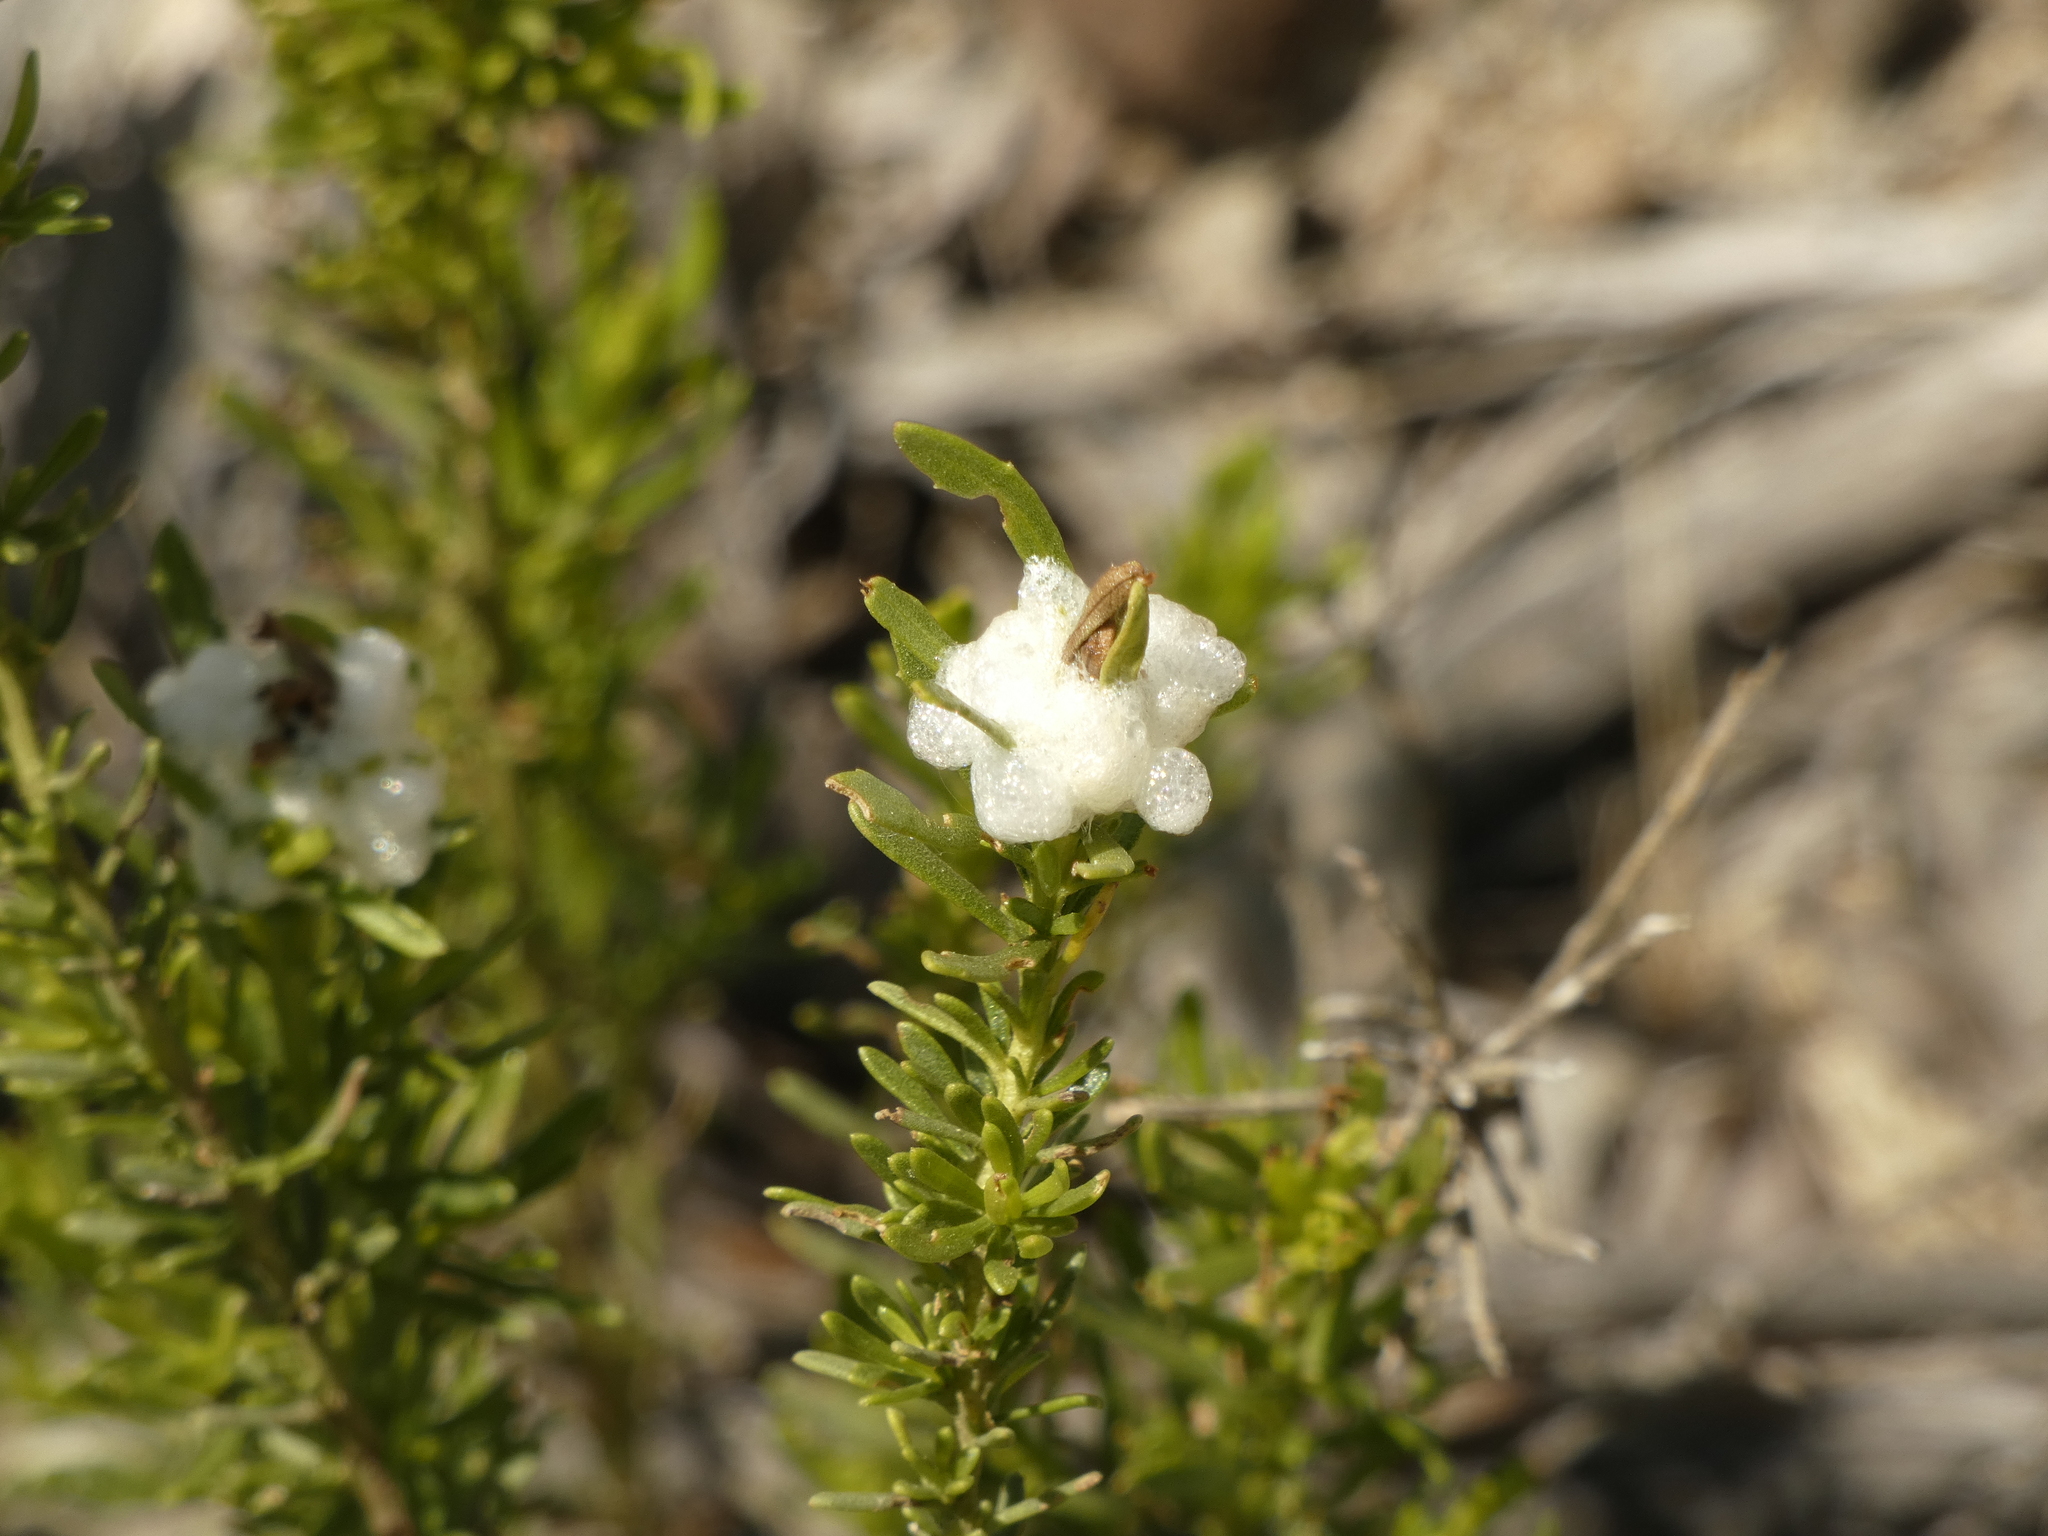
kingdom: Animalia
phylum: Arthropoda
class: Insecta
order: Diptera
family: Tephritidae
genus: Rachiptera
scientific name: Rachiptera limbata
